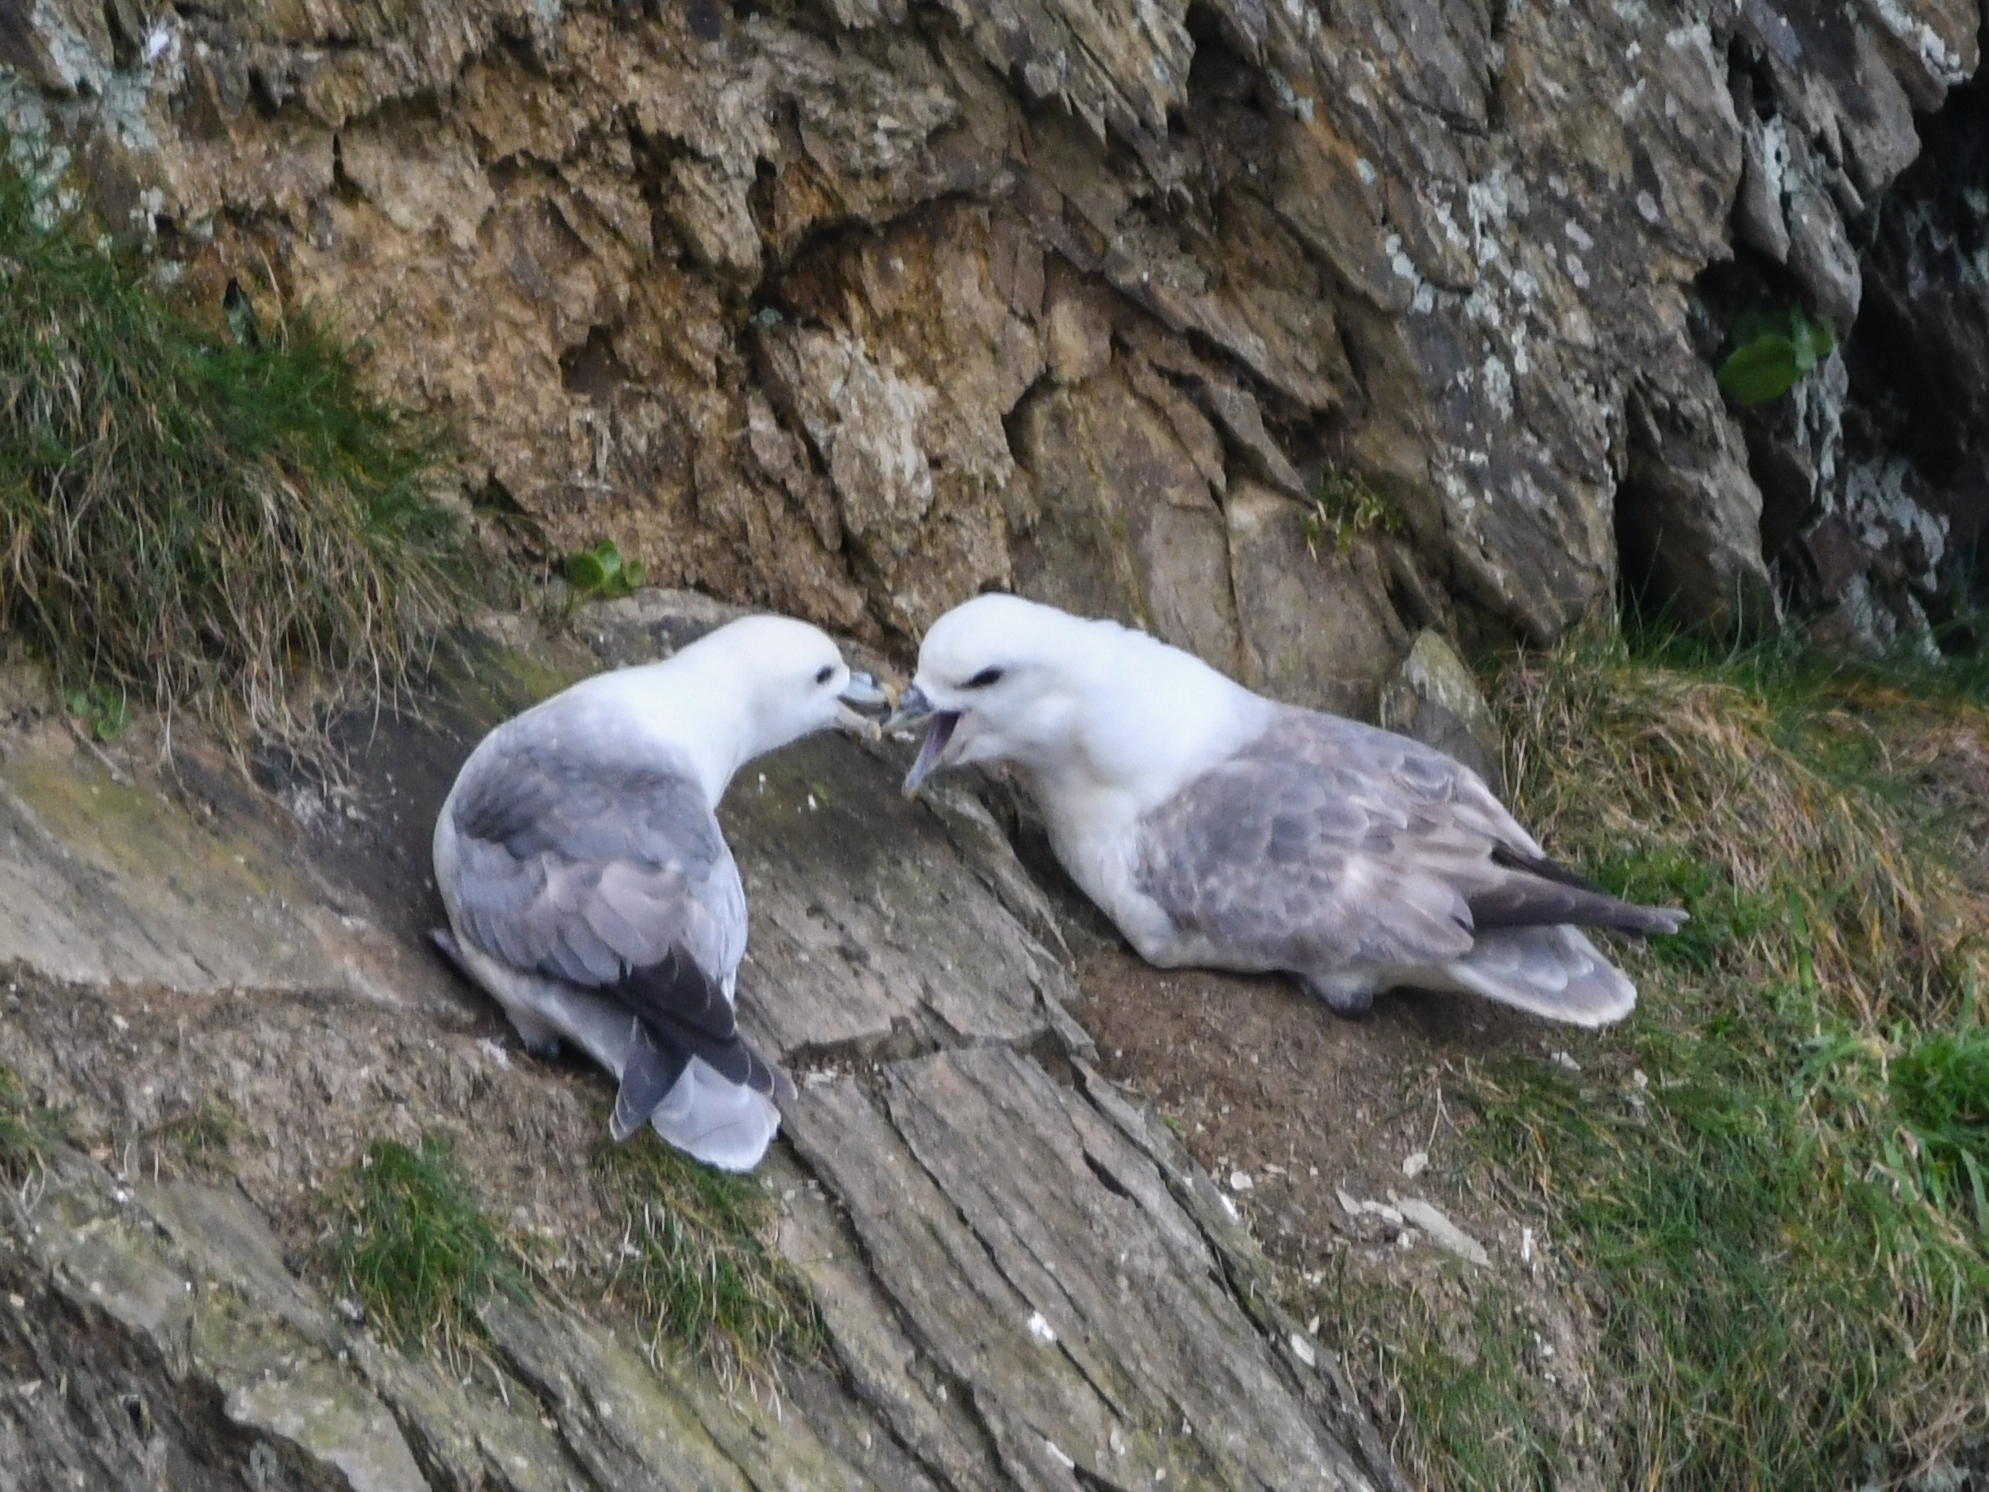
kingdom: Animalia
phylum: Chordata
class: Aves
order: Procellariiformes
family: Procellariidae
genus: Fulmarus
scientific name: Fulmarus glacialis
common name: Northern fulmar
